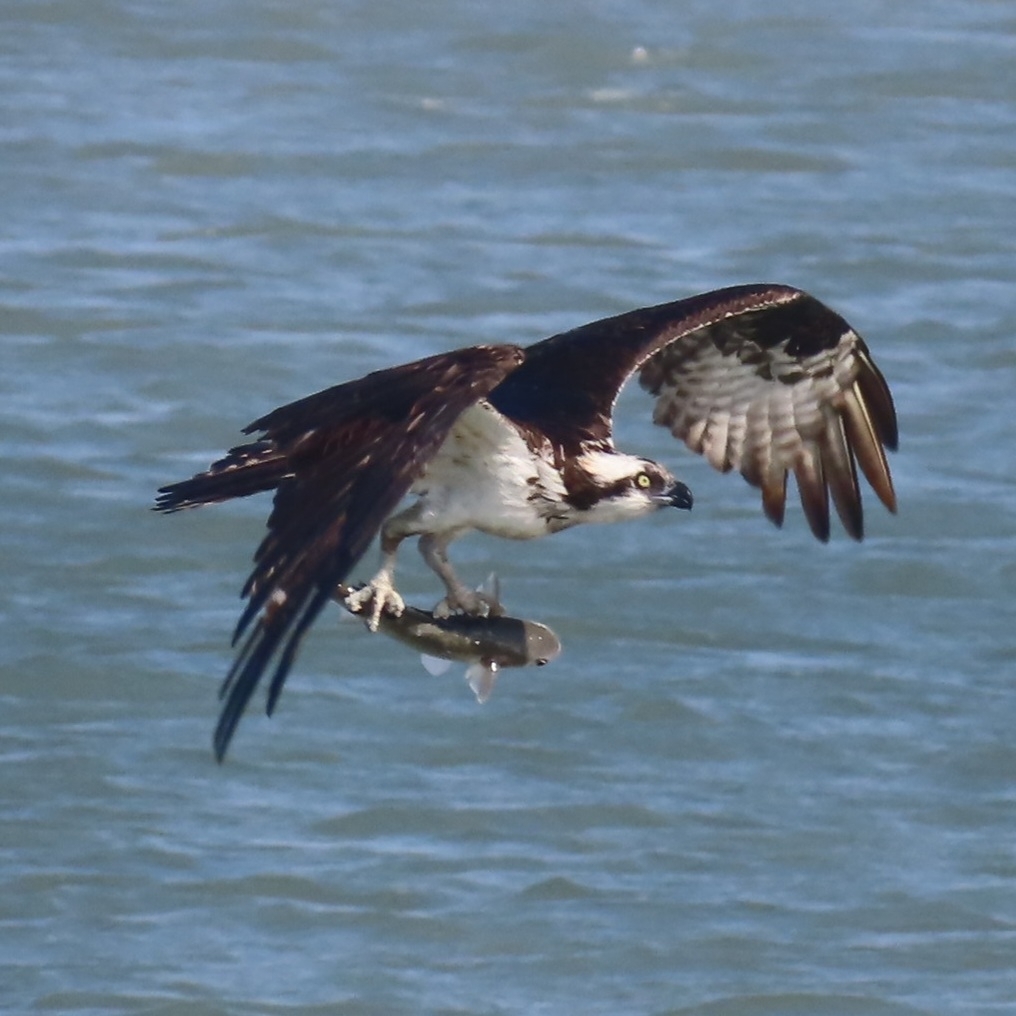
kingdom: Animalia
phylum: Chordata
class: Aves
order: Accipitriformes
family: Pandionidae
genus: Pandion
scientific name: Pandion haliaetus
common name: Osprey
